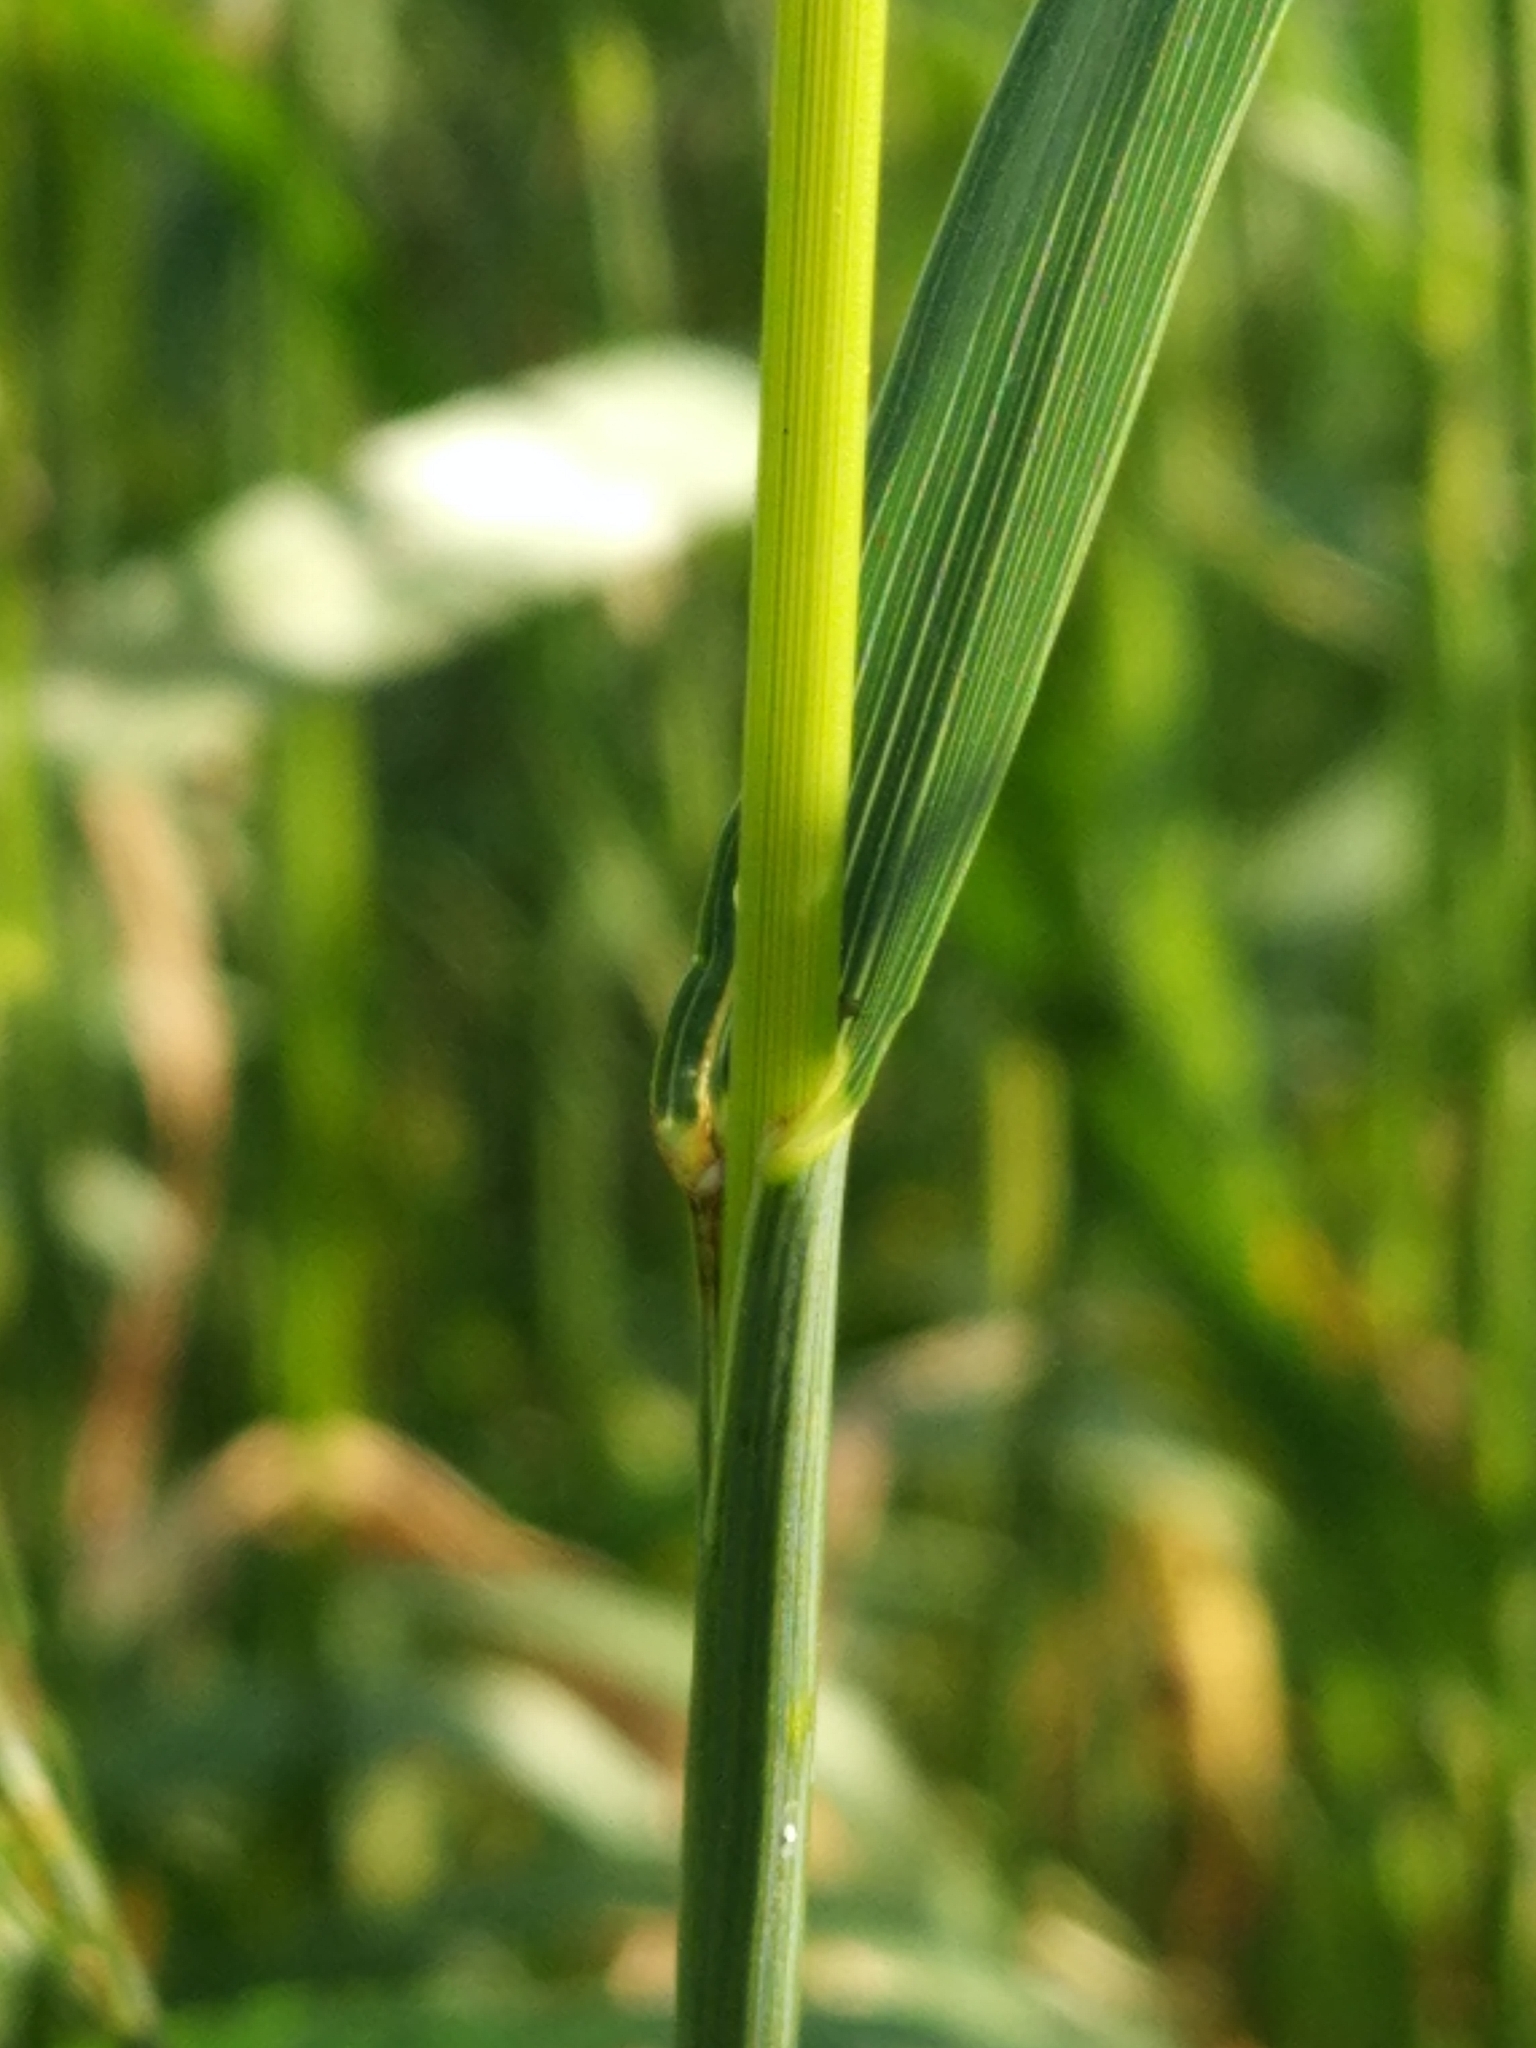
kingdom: Plantae
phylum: Tracheophyta
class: Liliopsida
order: Poales
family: Poaceae
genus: Bromus
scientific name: Bromus inermis
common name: Smooth brome
